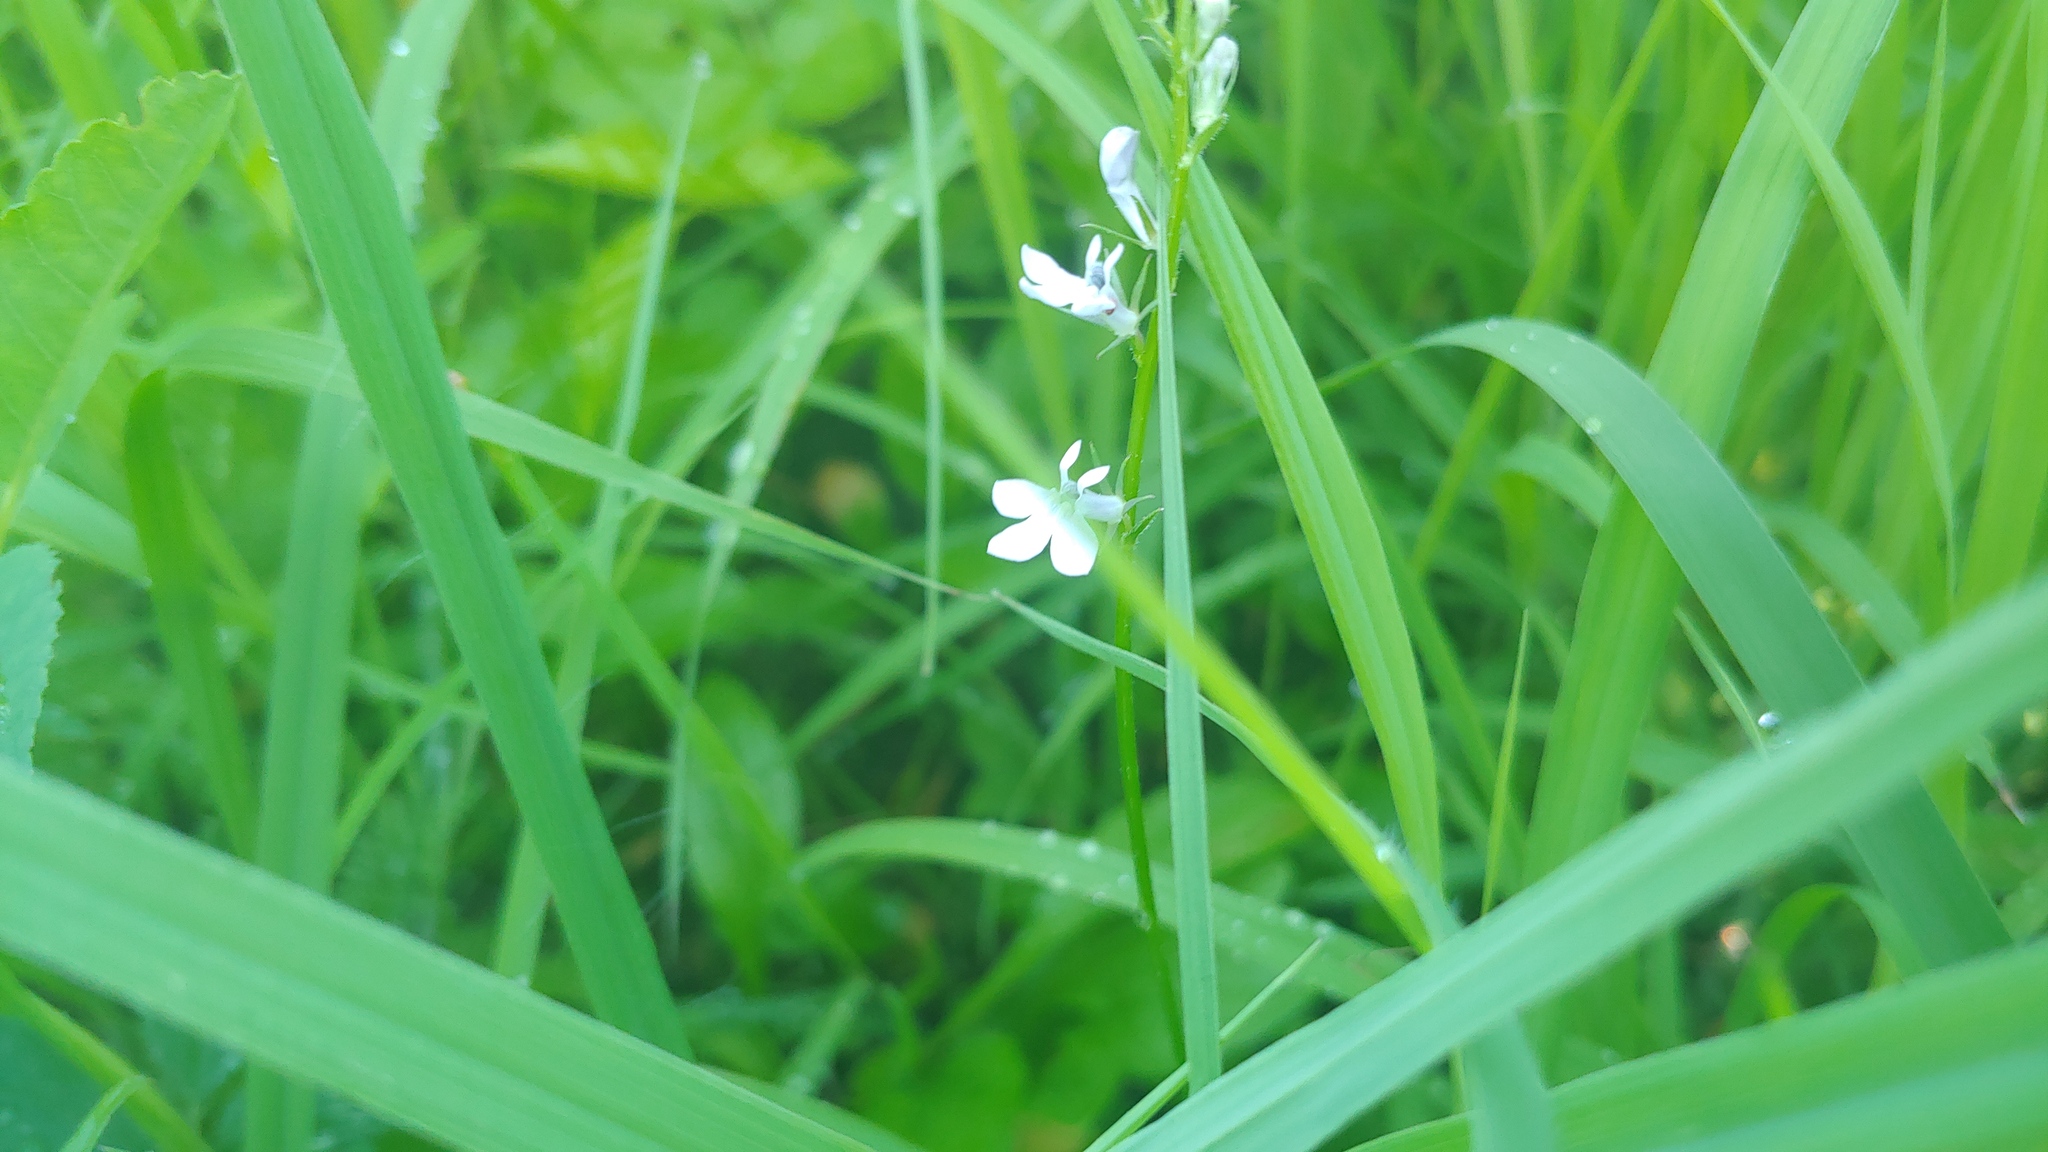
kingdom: Plantae
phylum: Tracheophyta
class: Magnoliopsida
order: Asterales
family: Campanulaceae
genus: Lobelia
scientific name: Lobelia spicata
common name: Pale-spike lobelia
